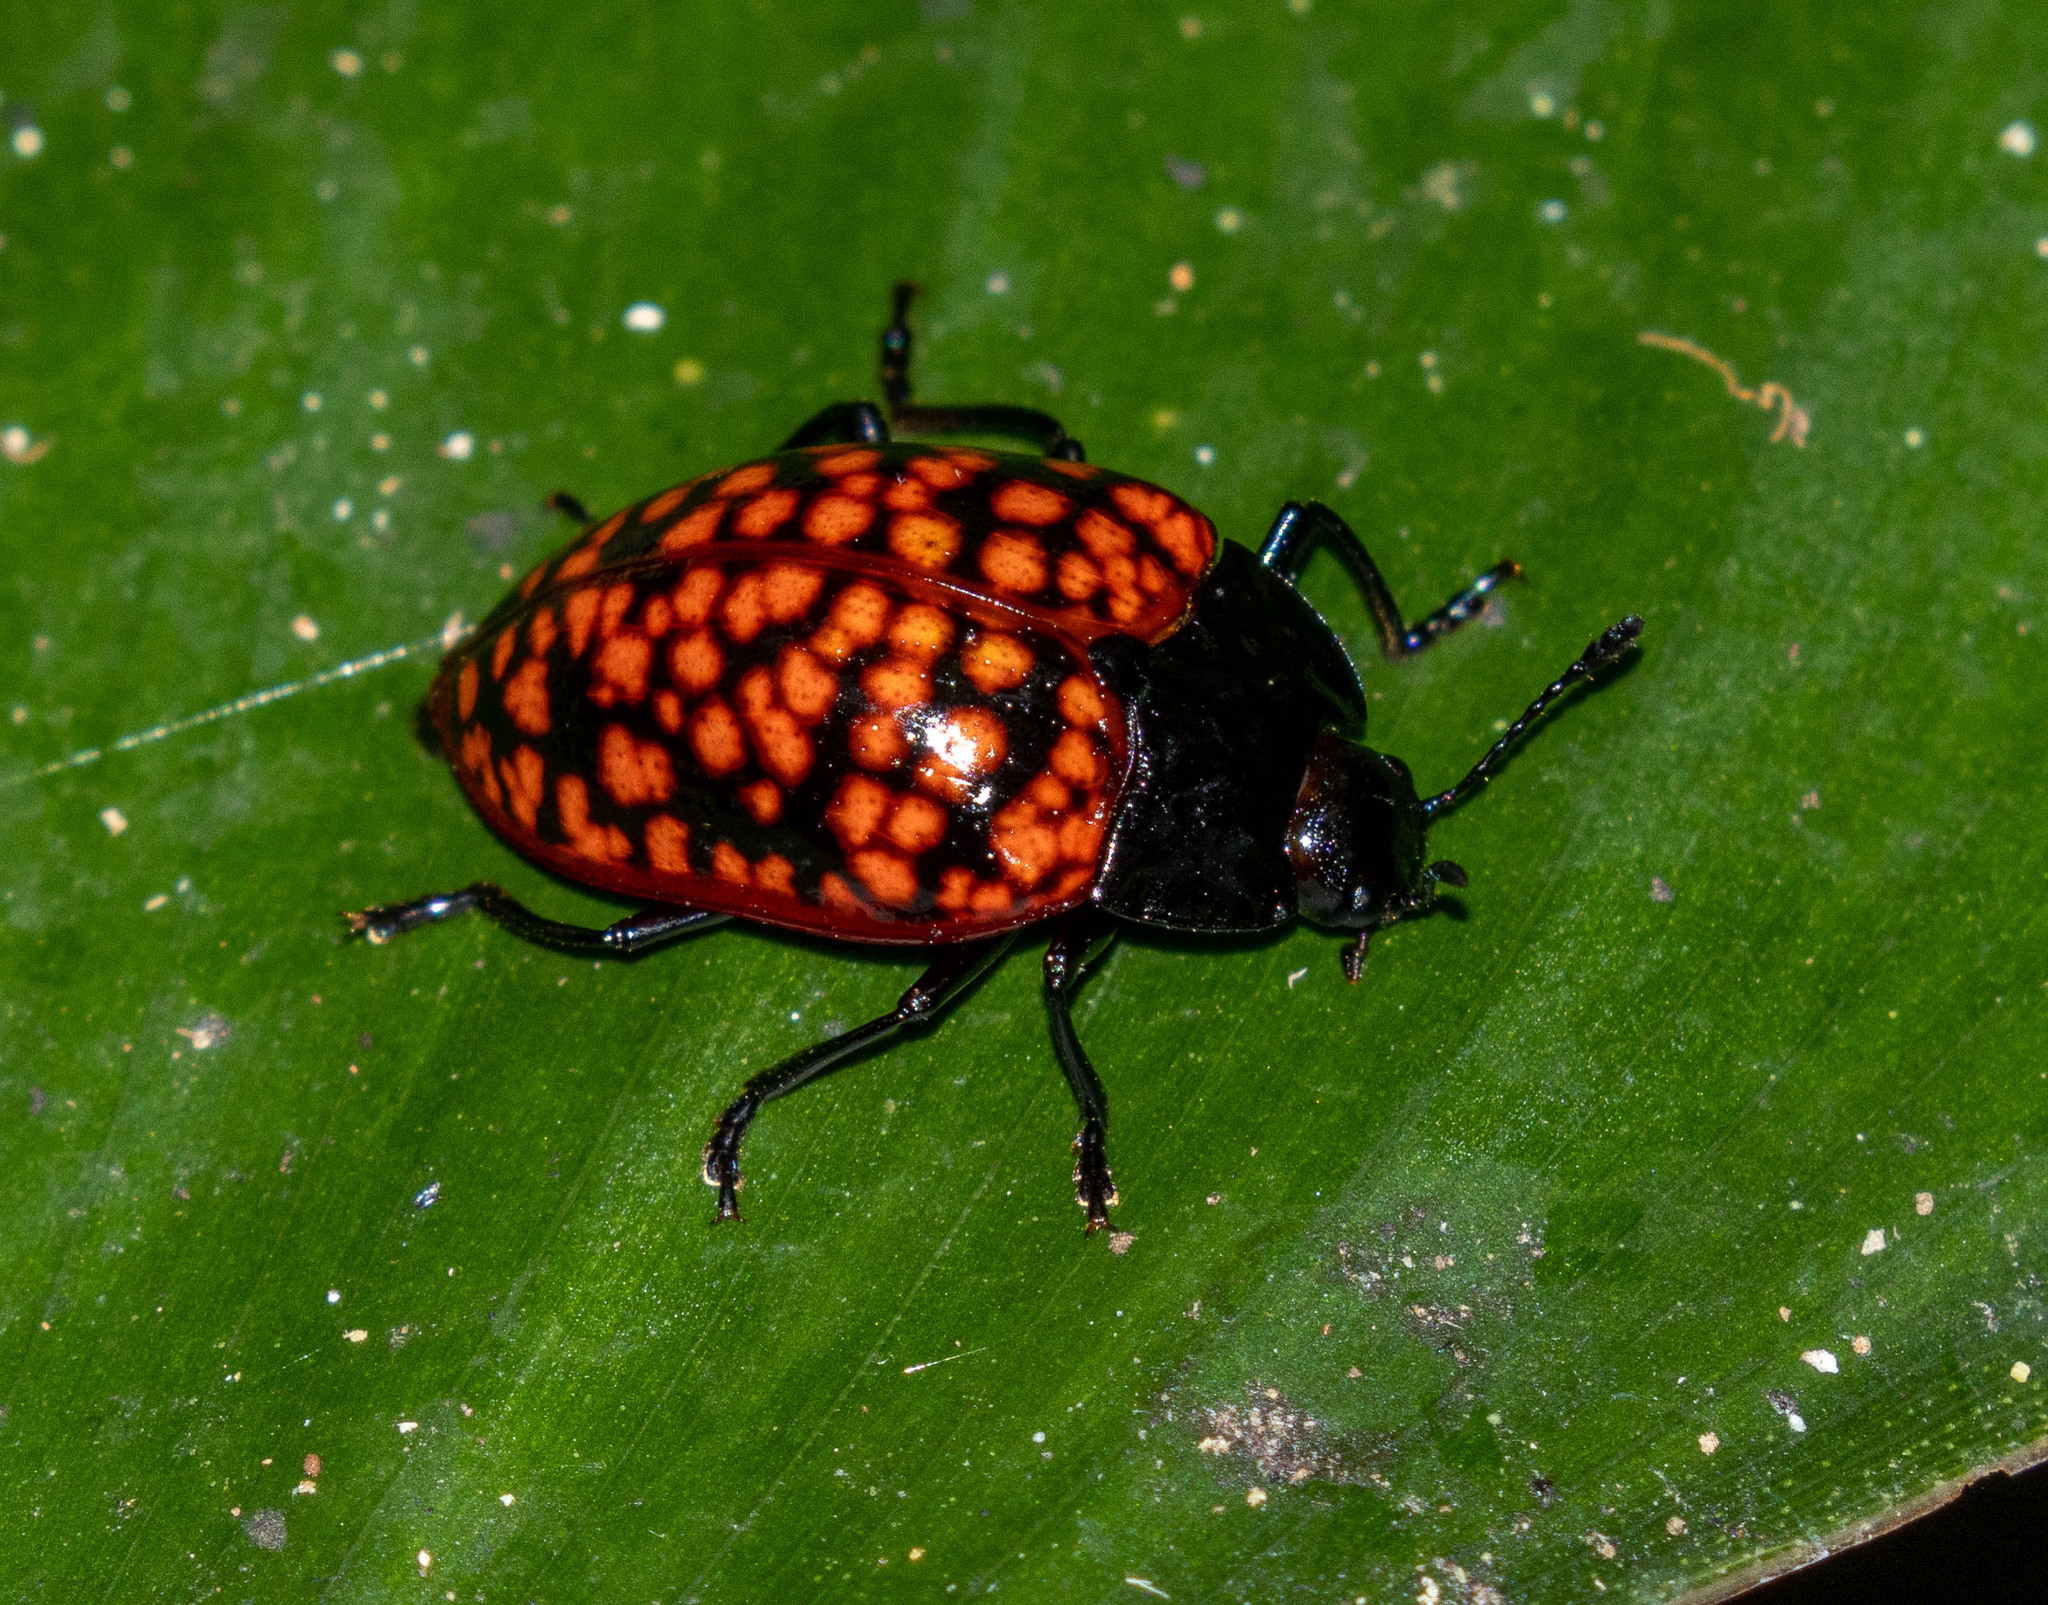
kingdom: Animalia
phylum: Arthropoda
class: Insecta
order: Coleoptera
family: Erotylidae
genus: Erotylina
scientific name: Erotylina jaspidea
